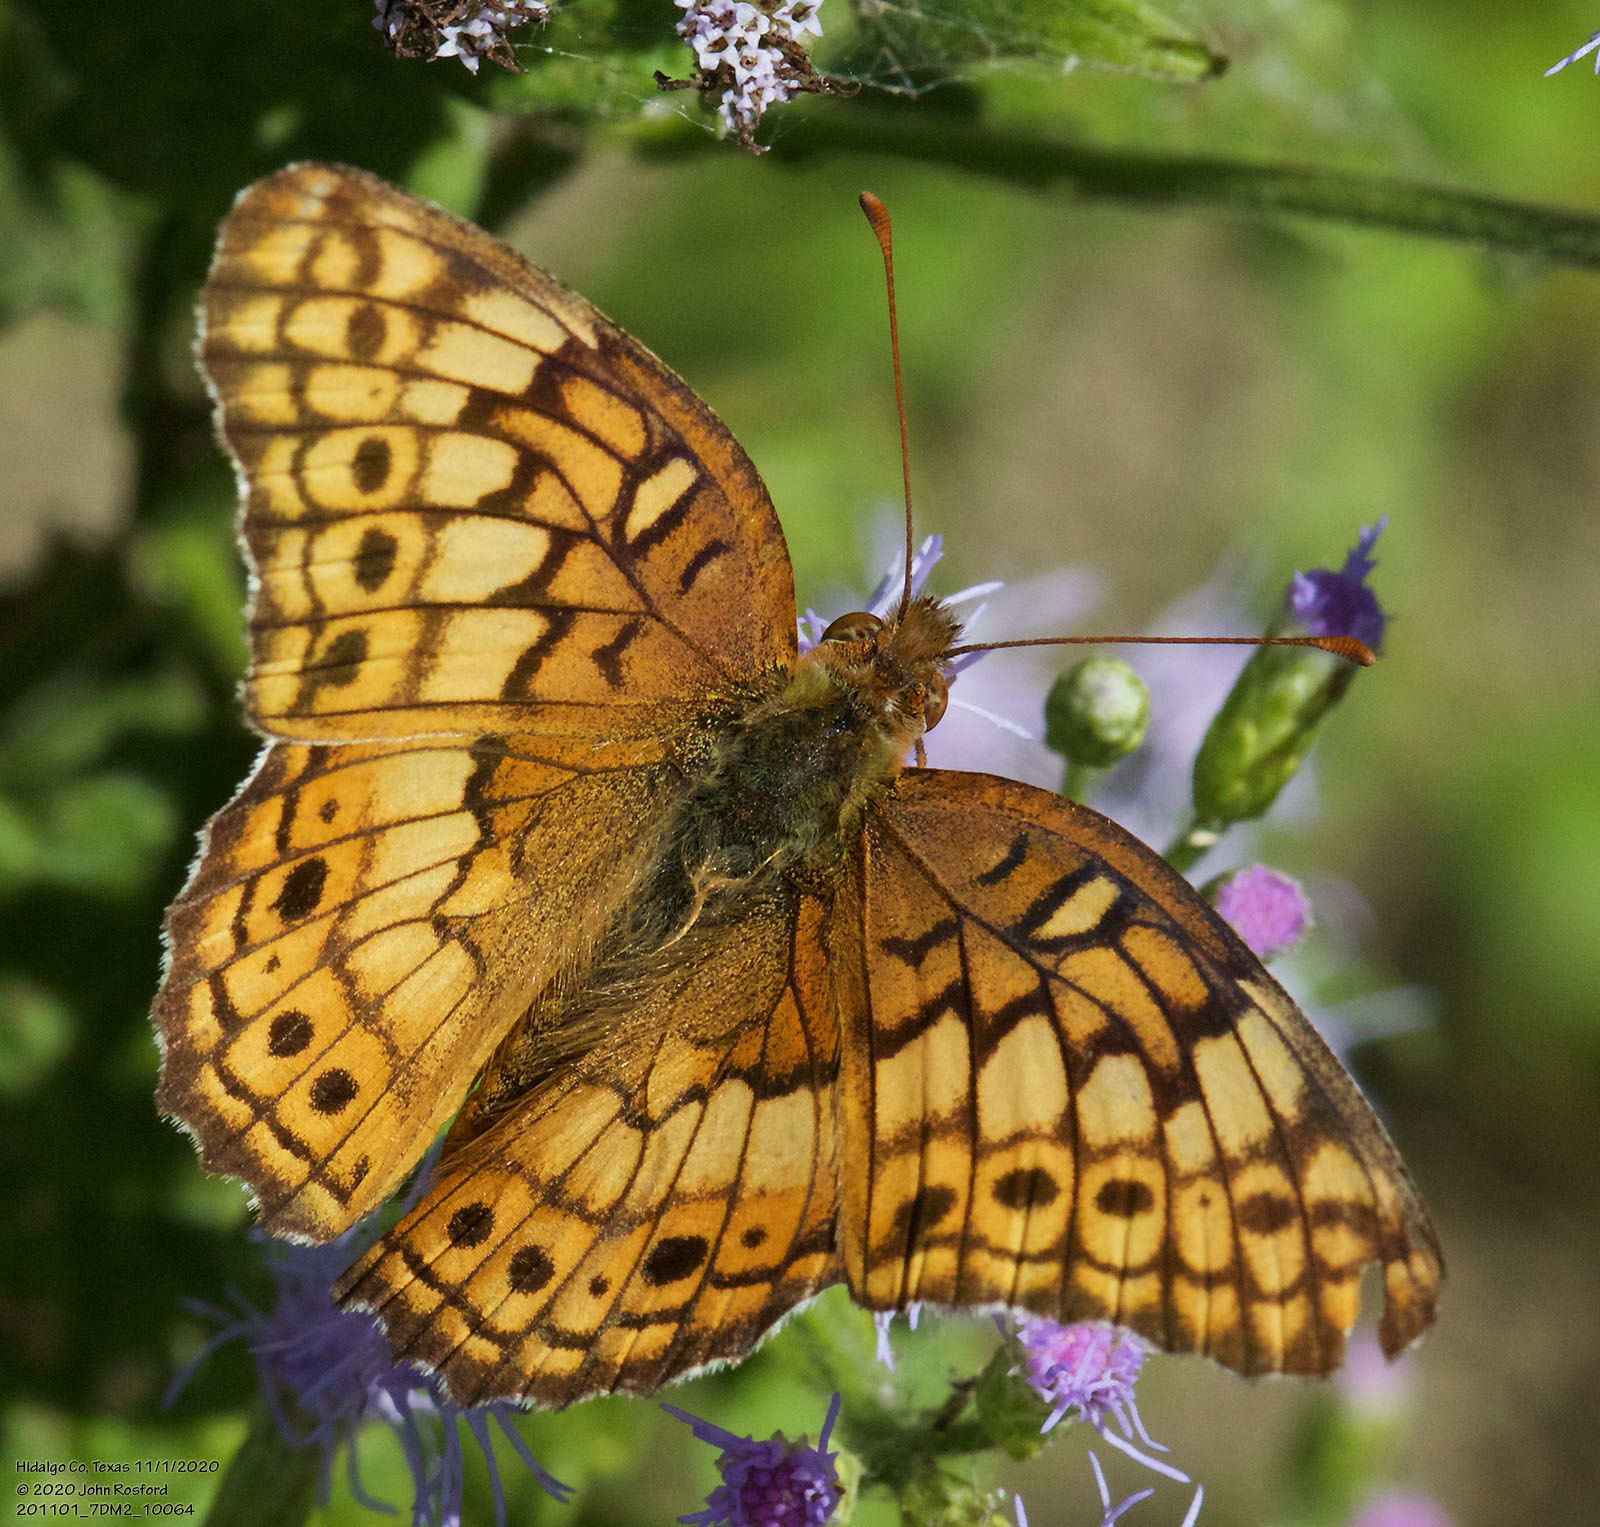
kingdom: Animalia
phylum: Arthropoda
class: Insecta
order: Lepidoptera
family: Nymphalidae
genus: Euptoieta
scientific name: Euptoieta claudia
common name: Variegated fritillary
